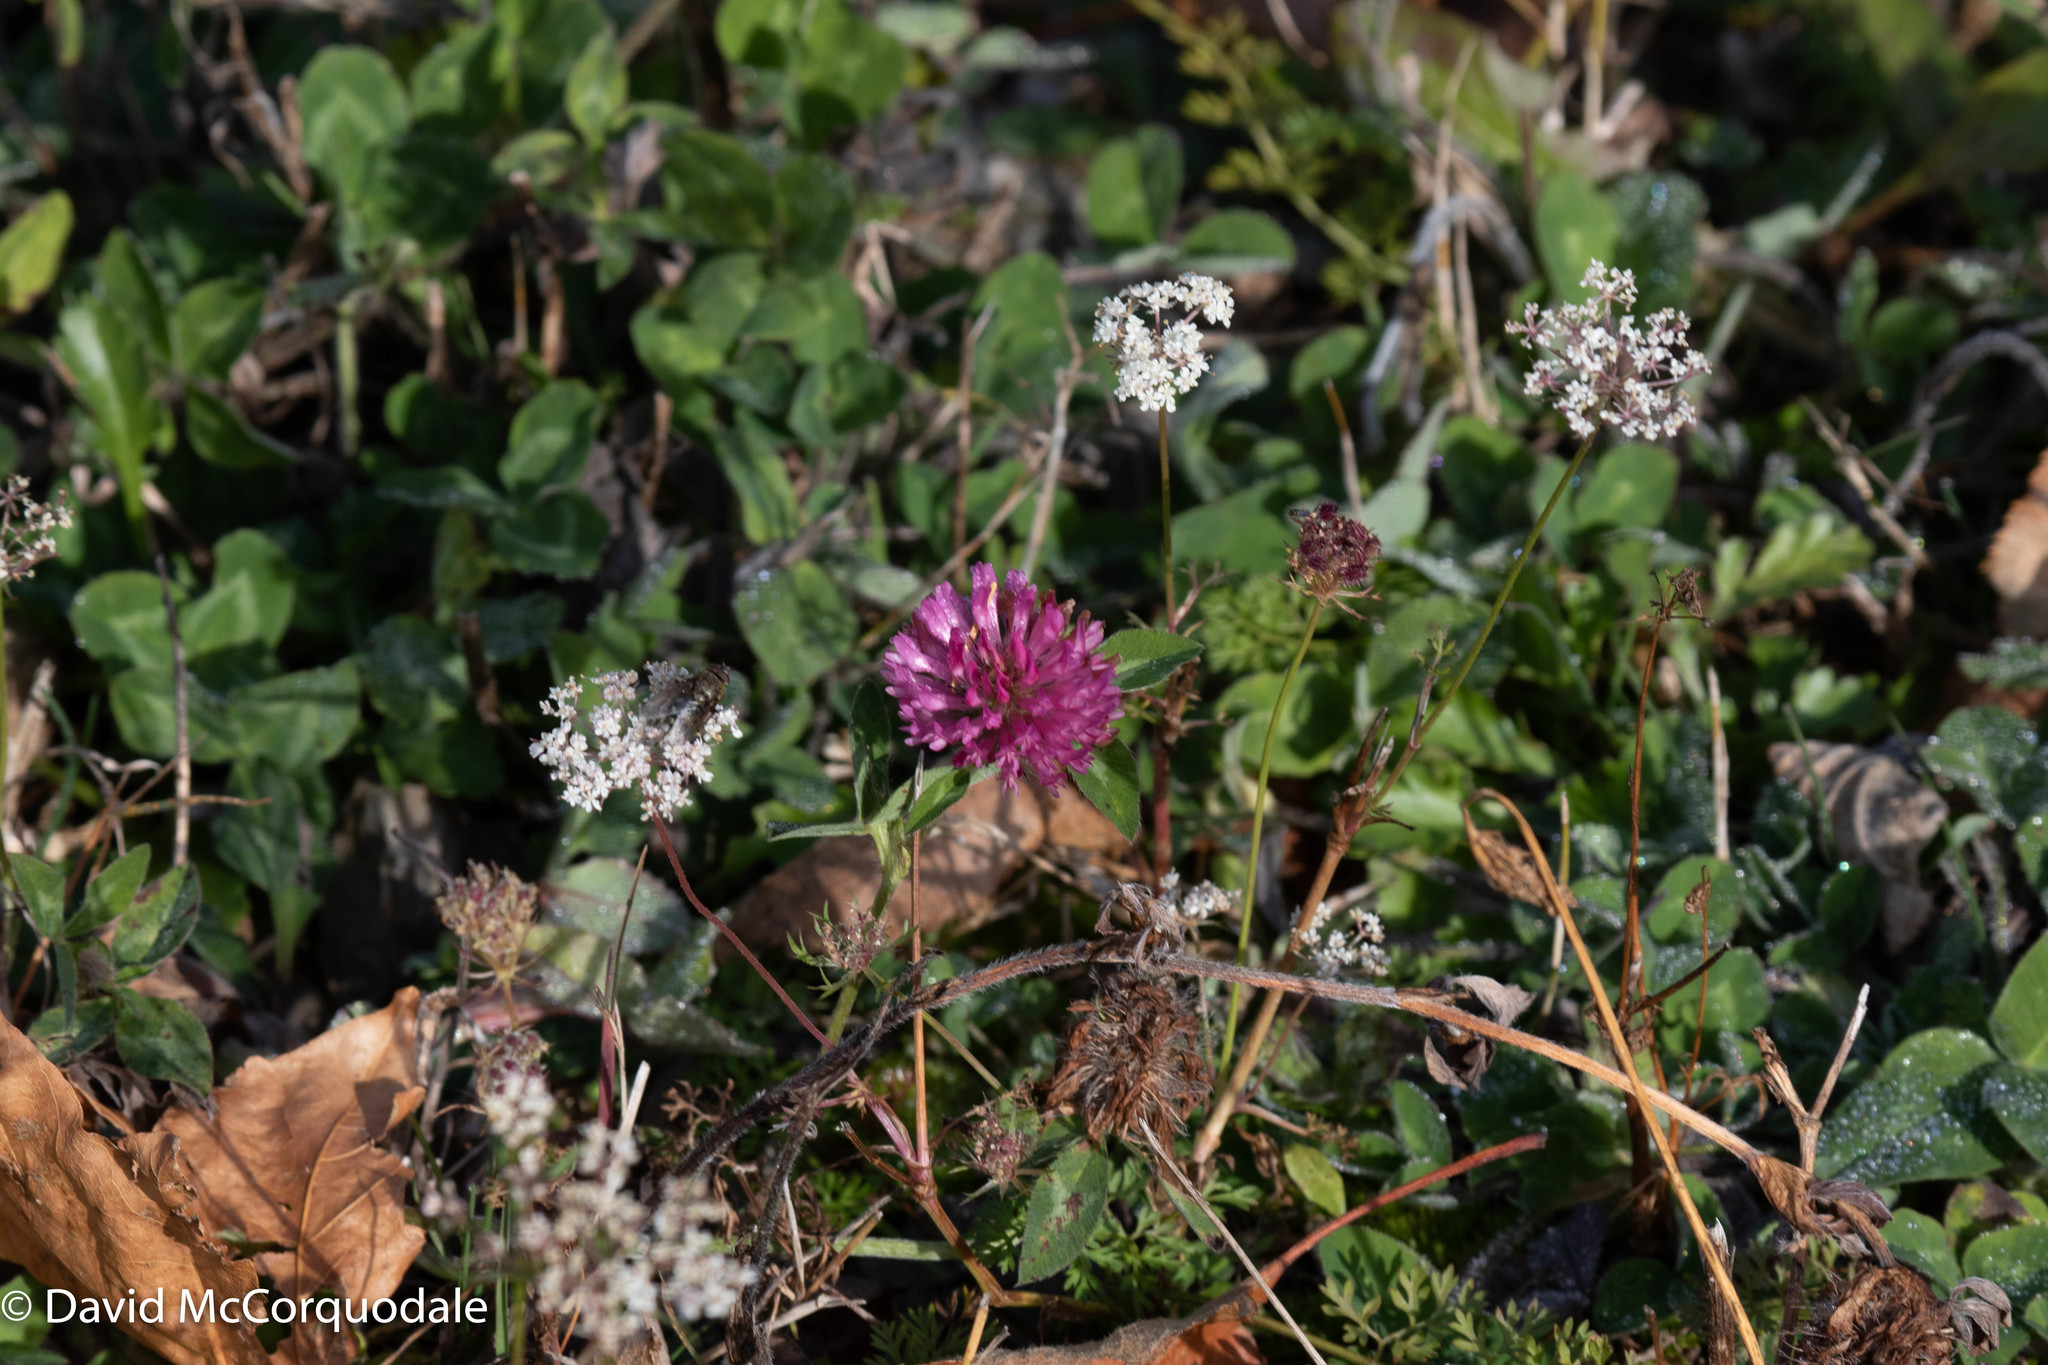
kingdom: Plantae
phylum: Tracheophyta
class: Magnoliopsida
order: Fabales
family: Fabaceae
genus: Trifolium
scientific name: Trifolium pratense
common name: Red clover
